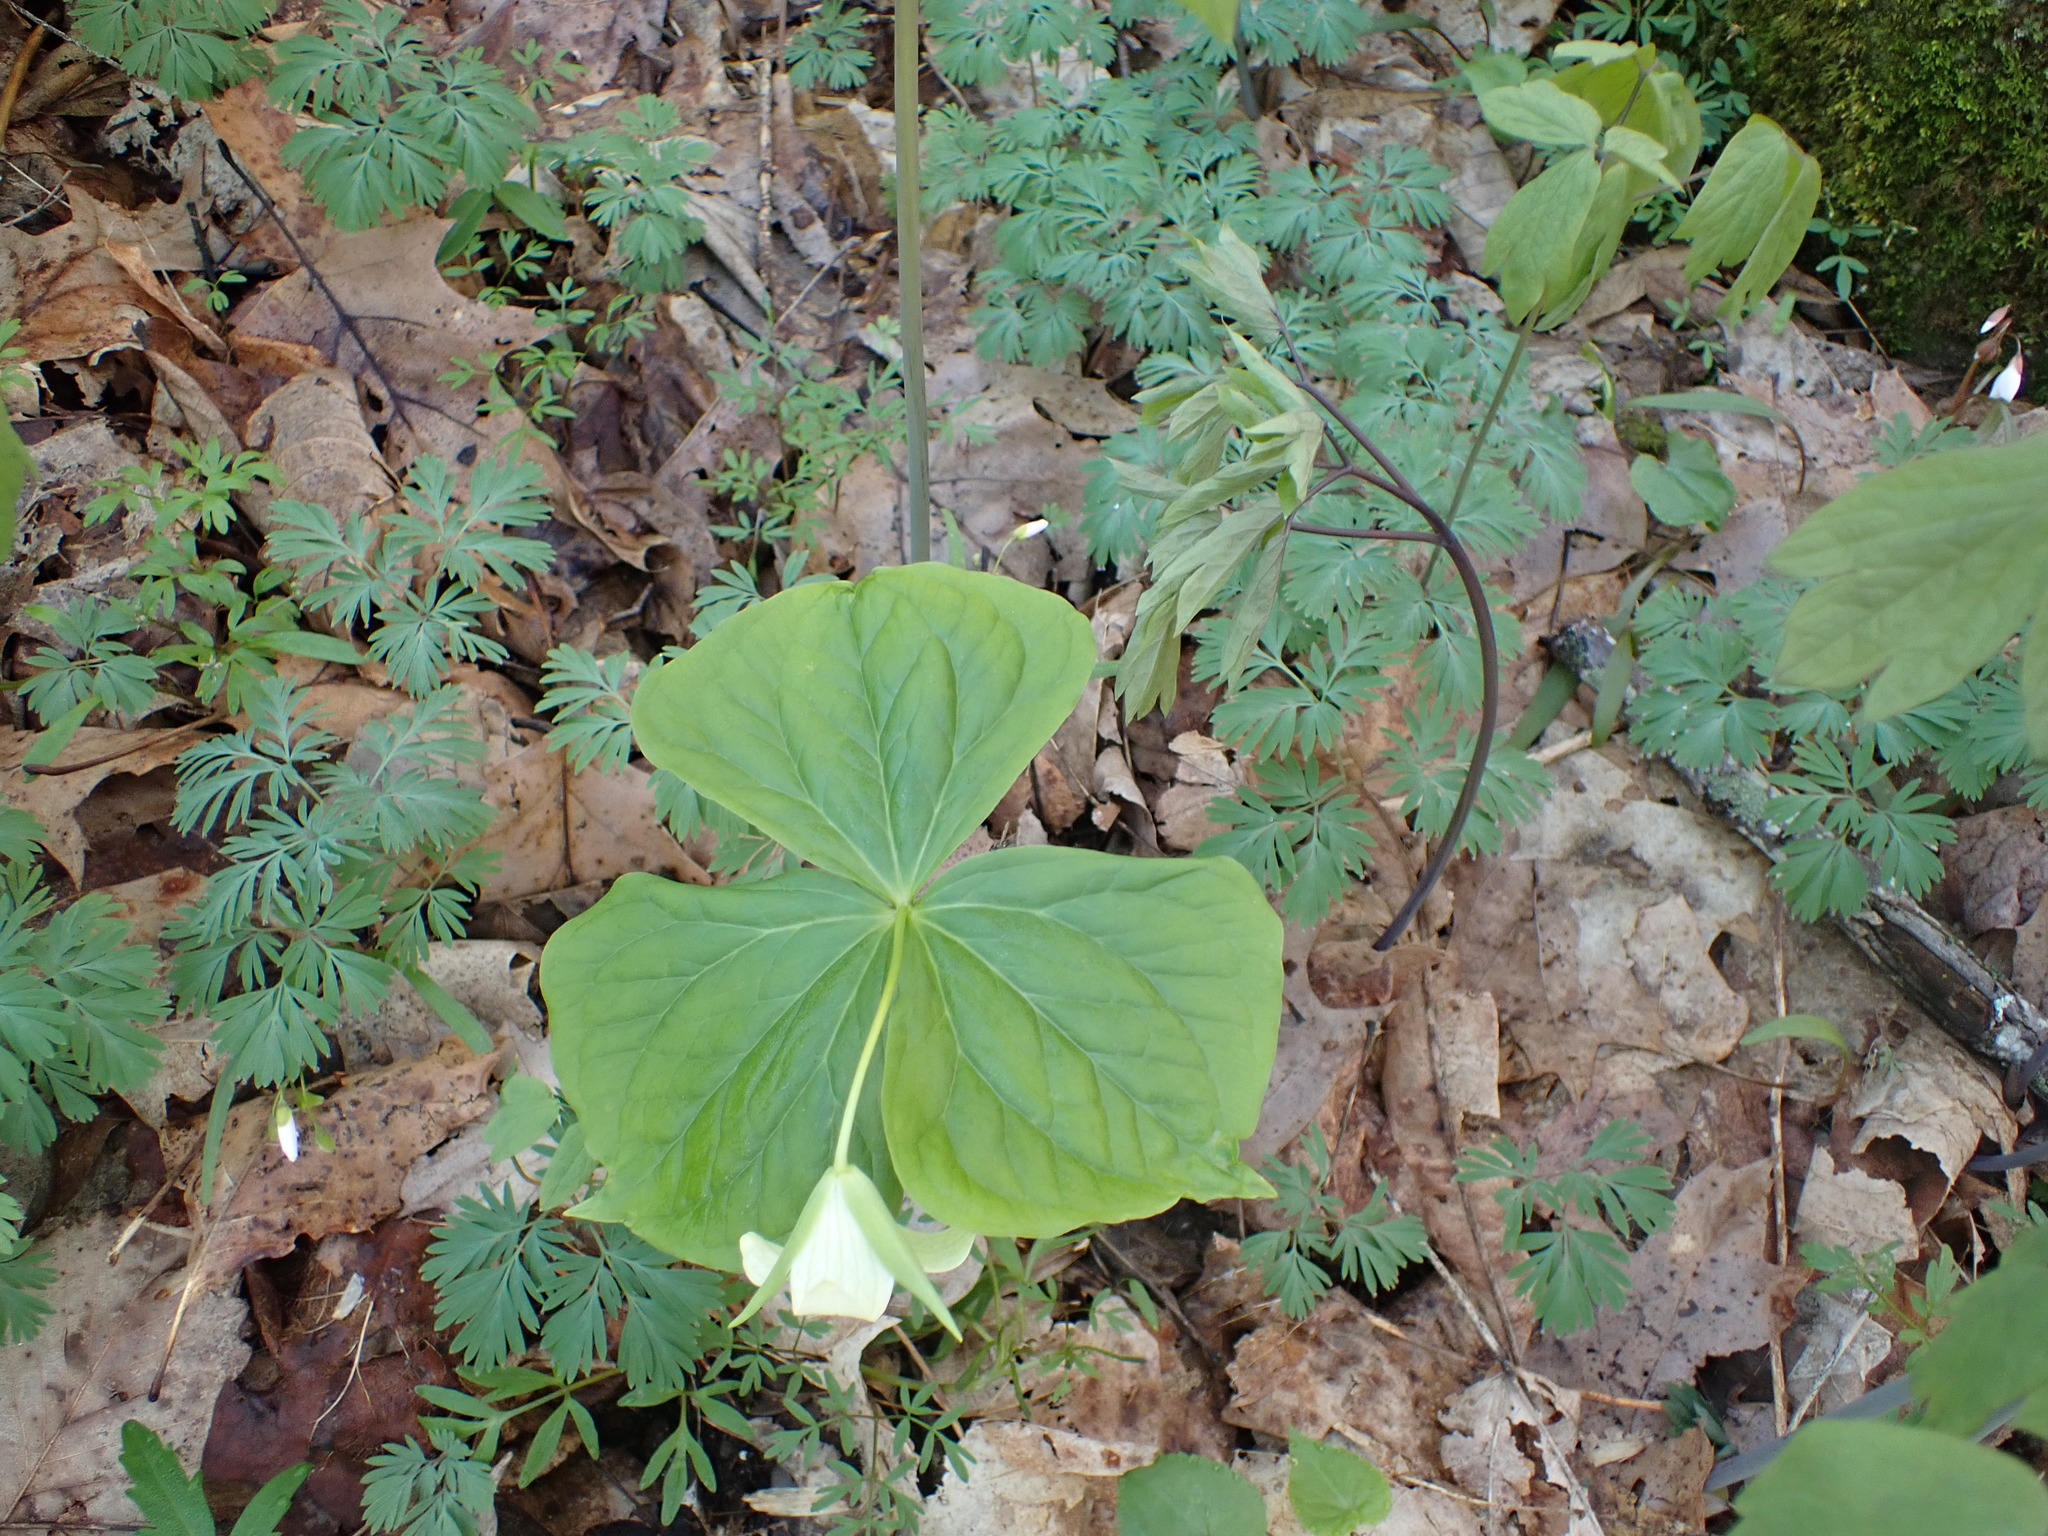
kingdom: Plantae
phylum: Tracheophyta
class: Liliopsida
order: Liliales
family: Melanthiaceae
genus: Trillium
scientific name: Trillium erectum
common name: Purple trillium
